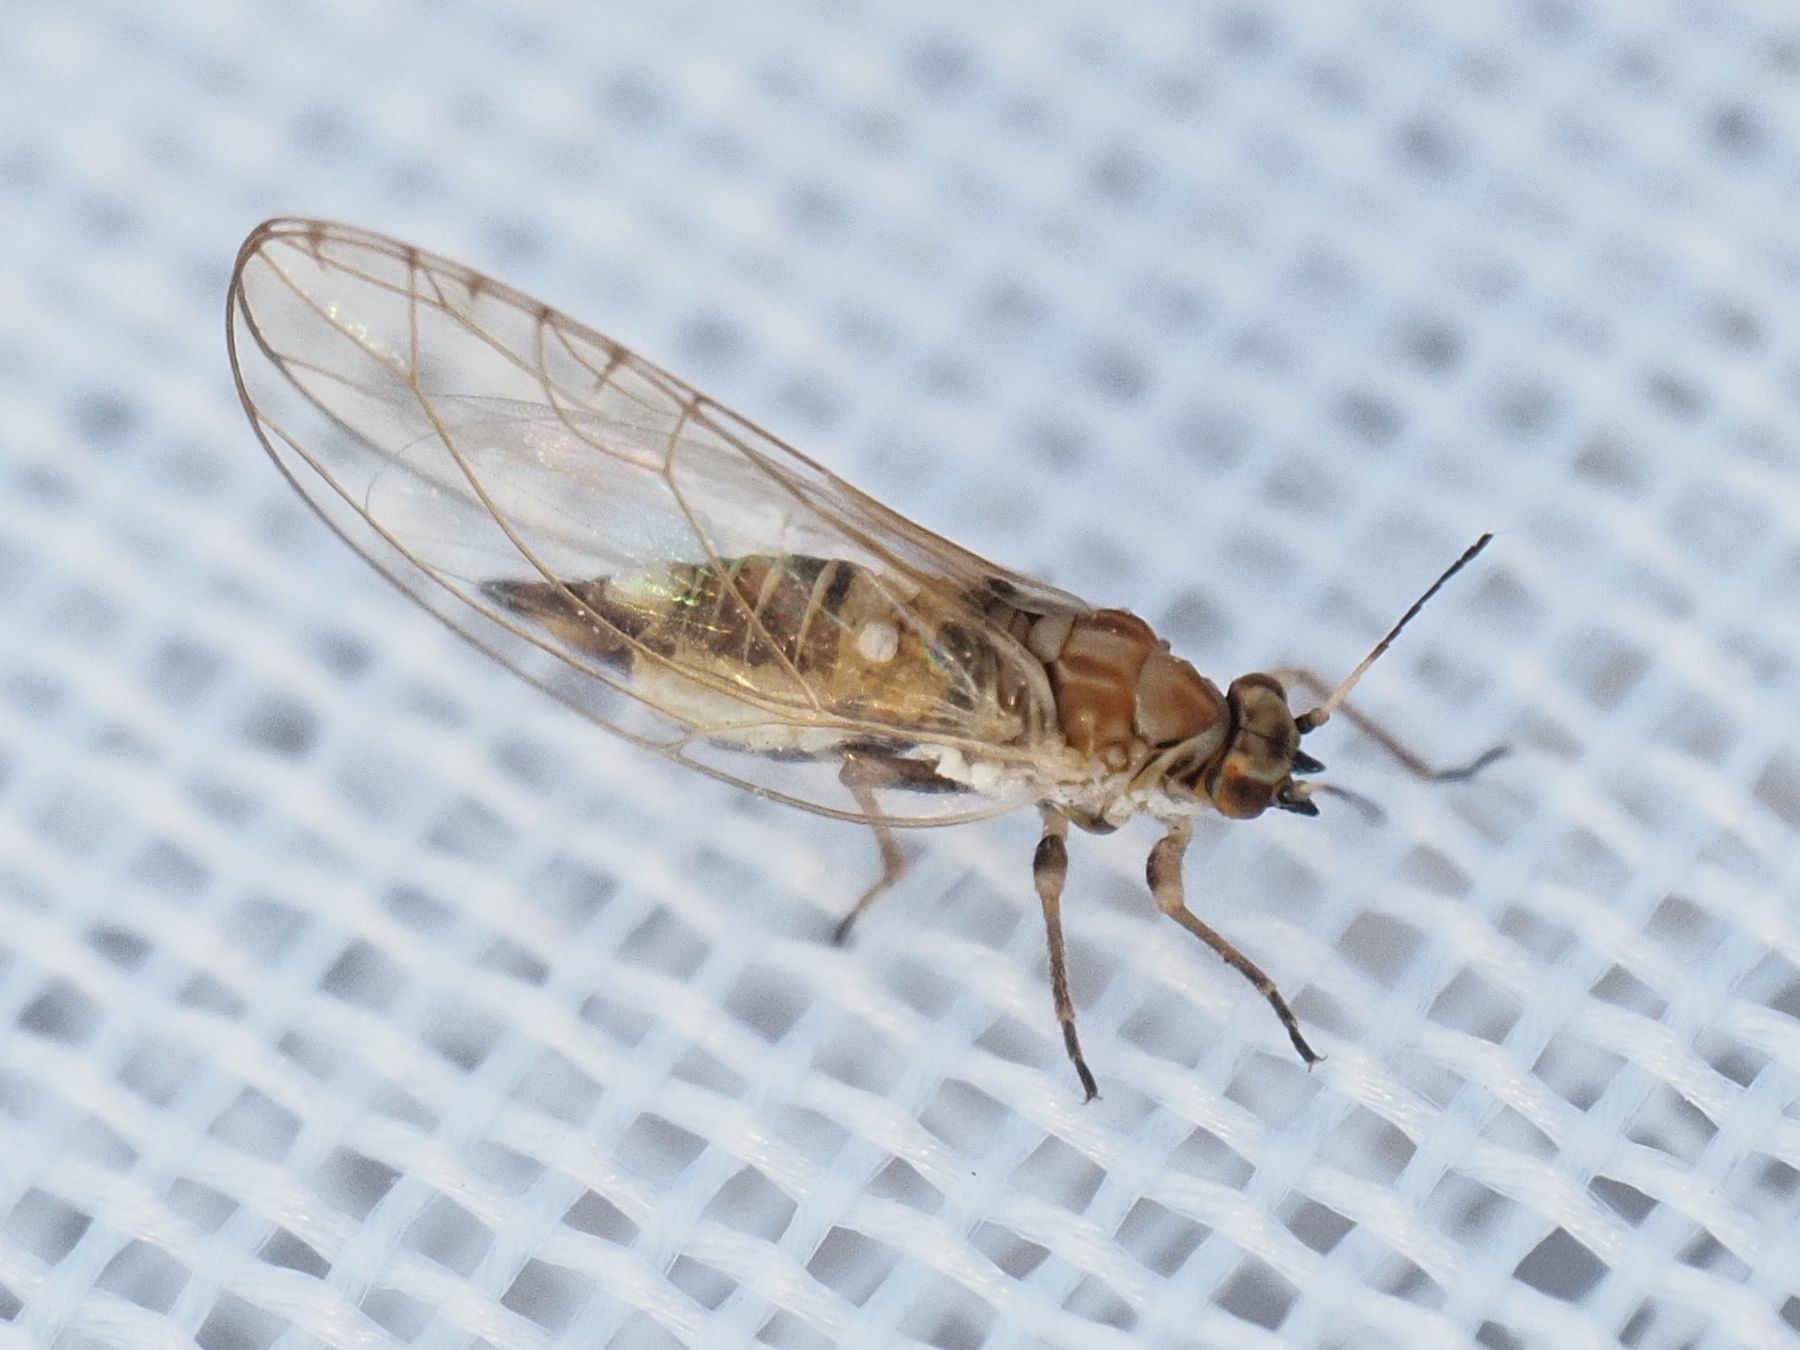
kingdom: Animalia
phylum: Arthropoda
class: Insecta
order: Hemiptera
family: Triozidae
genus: Trioza
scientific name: Trioza urticae
